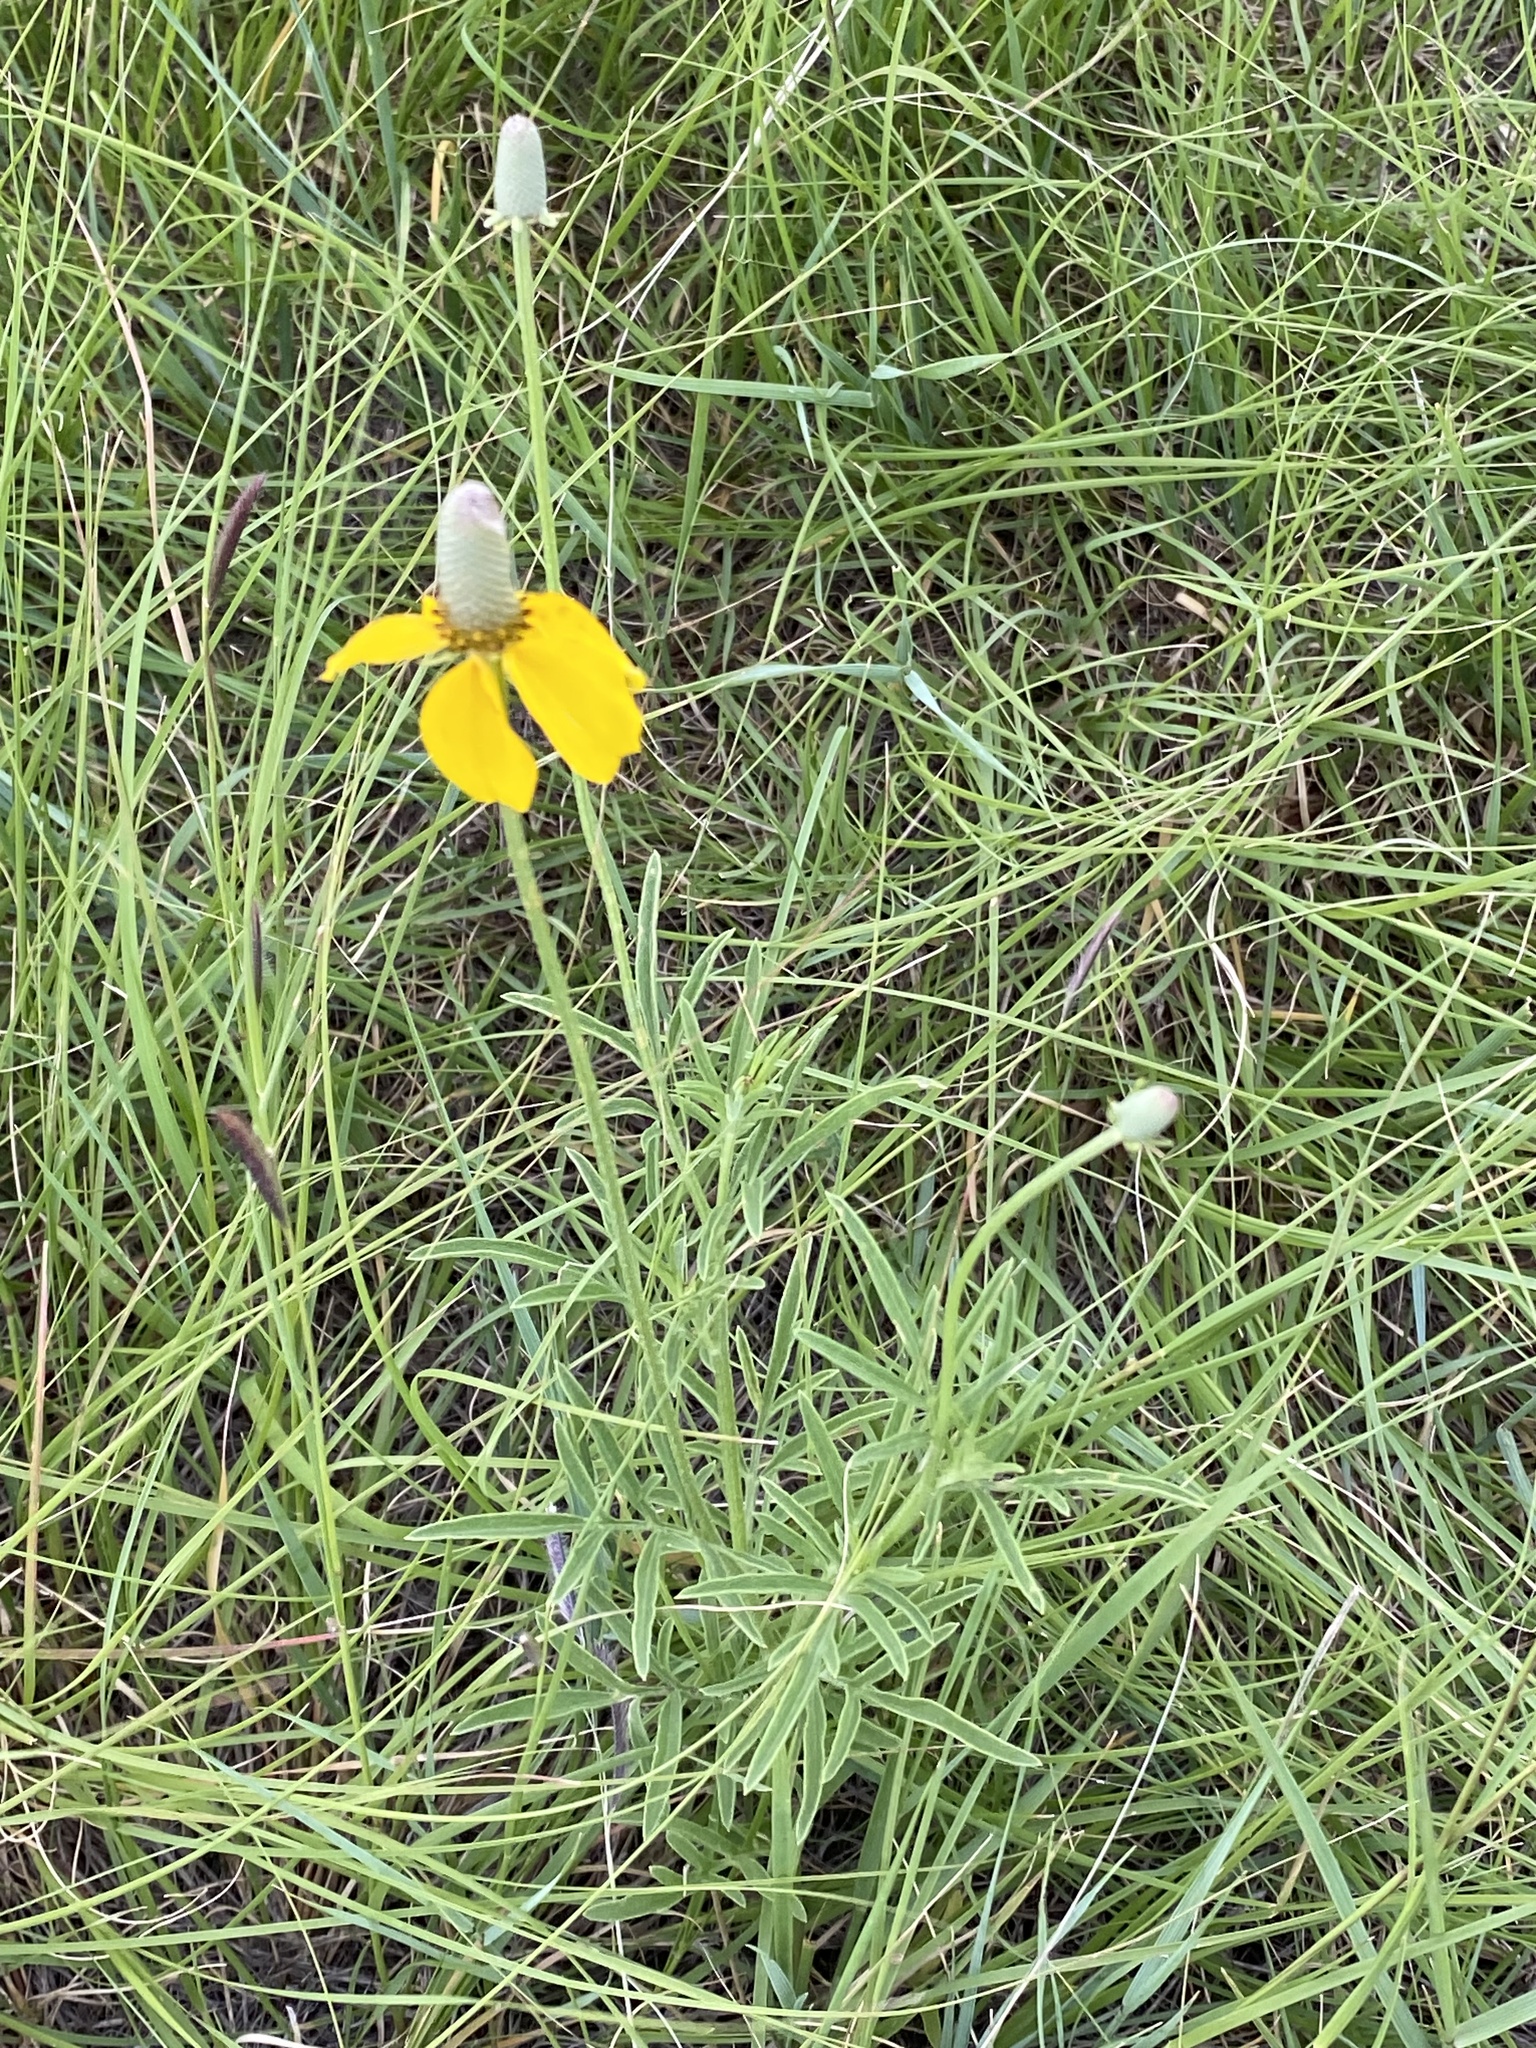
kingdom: Plantae
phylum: Tracheophyta
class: Magnoliopsida
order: Asterales
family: Asteraceae
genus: Ratibida
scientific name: Ratibida columnifera
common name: Prairie coneflower
